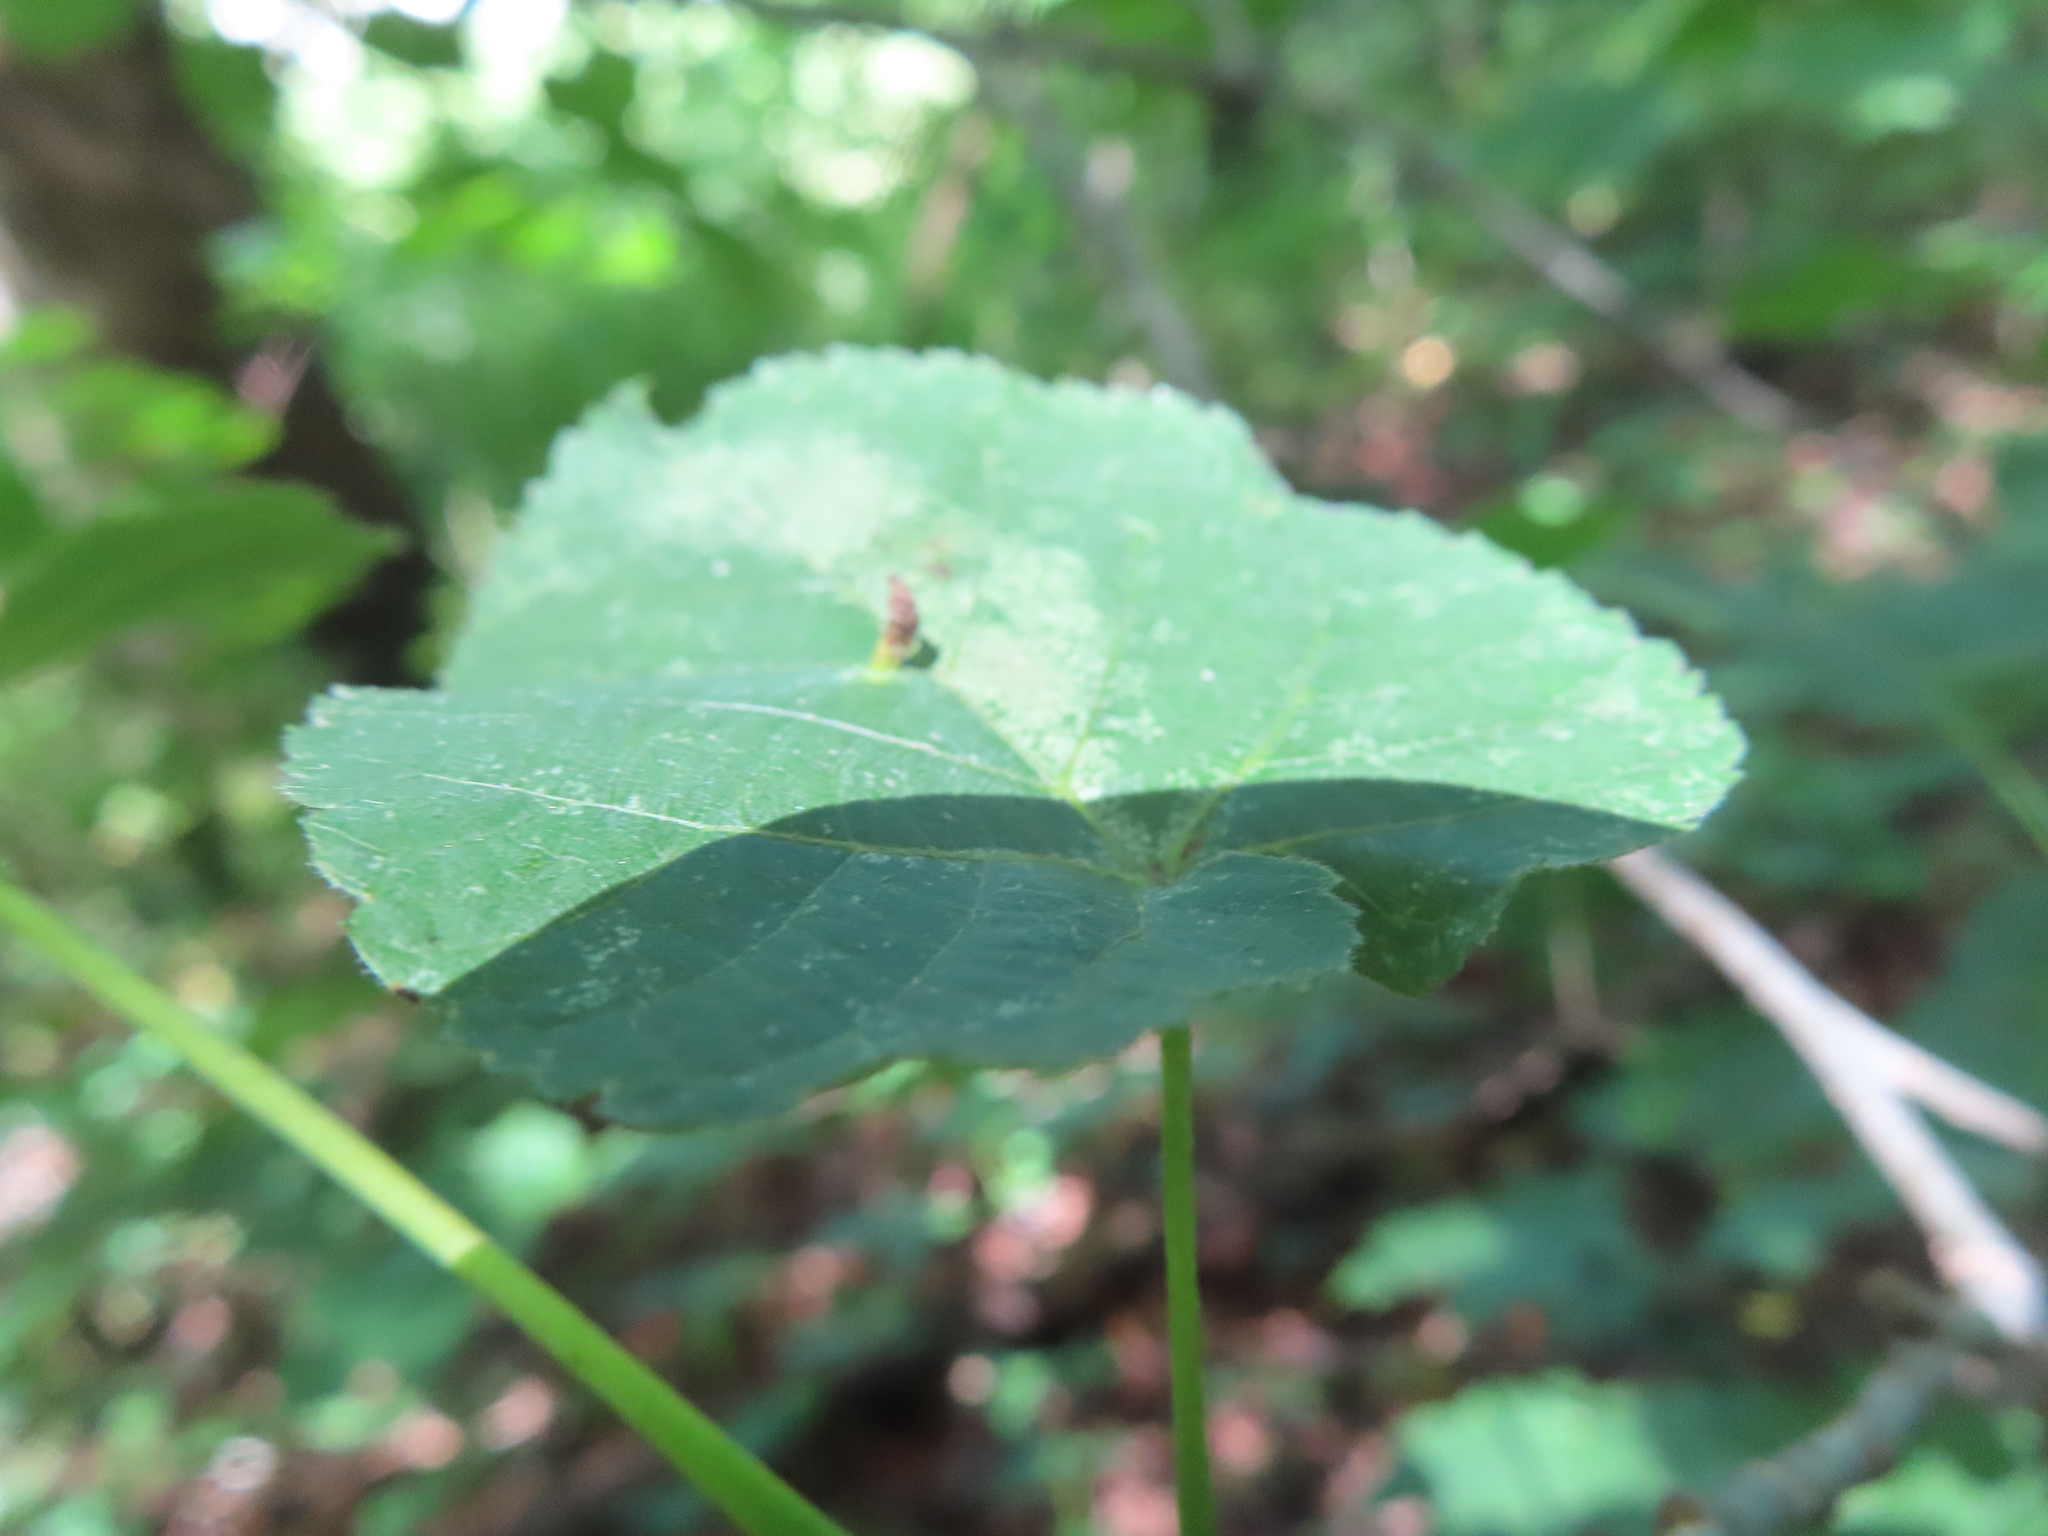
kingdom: Animalia
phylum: Arthropoda
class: Arachnida
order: Trombidiformes
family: Eriophyidae
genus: Eriophyes
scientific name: Eriophyes tiliae
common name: Red nail gall mite
